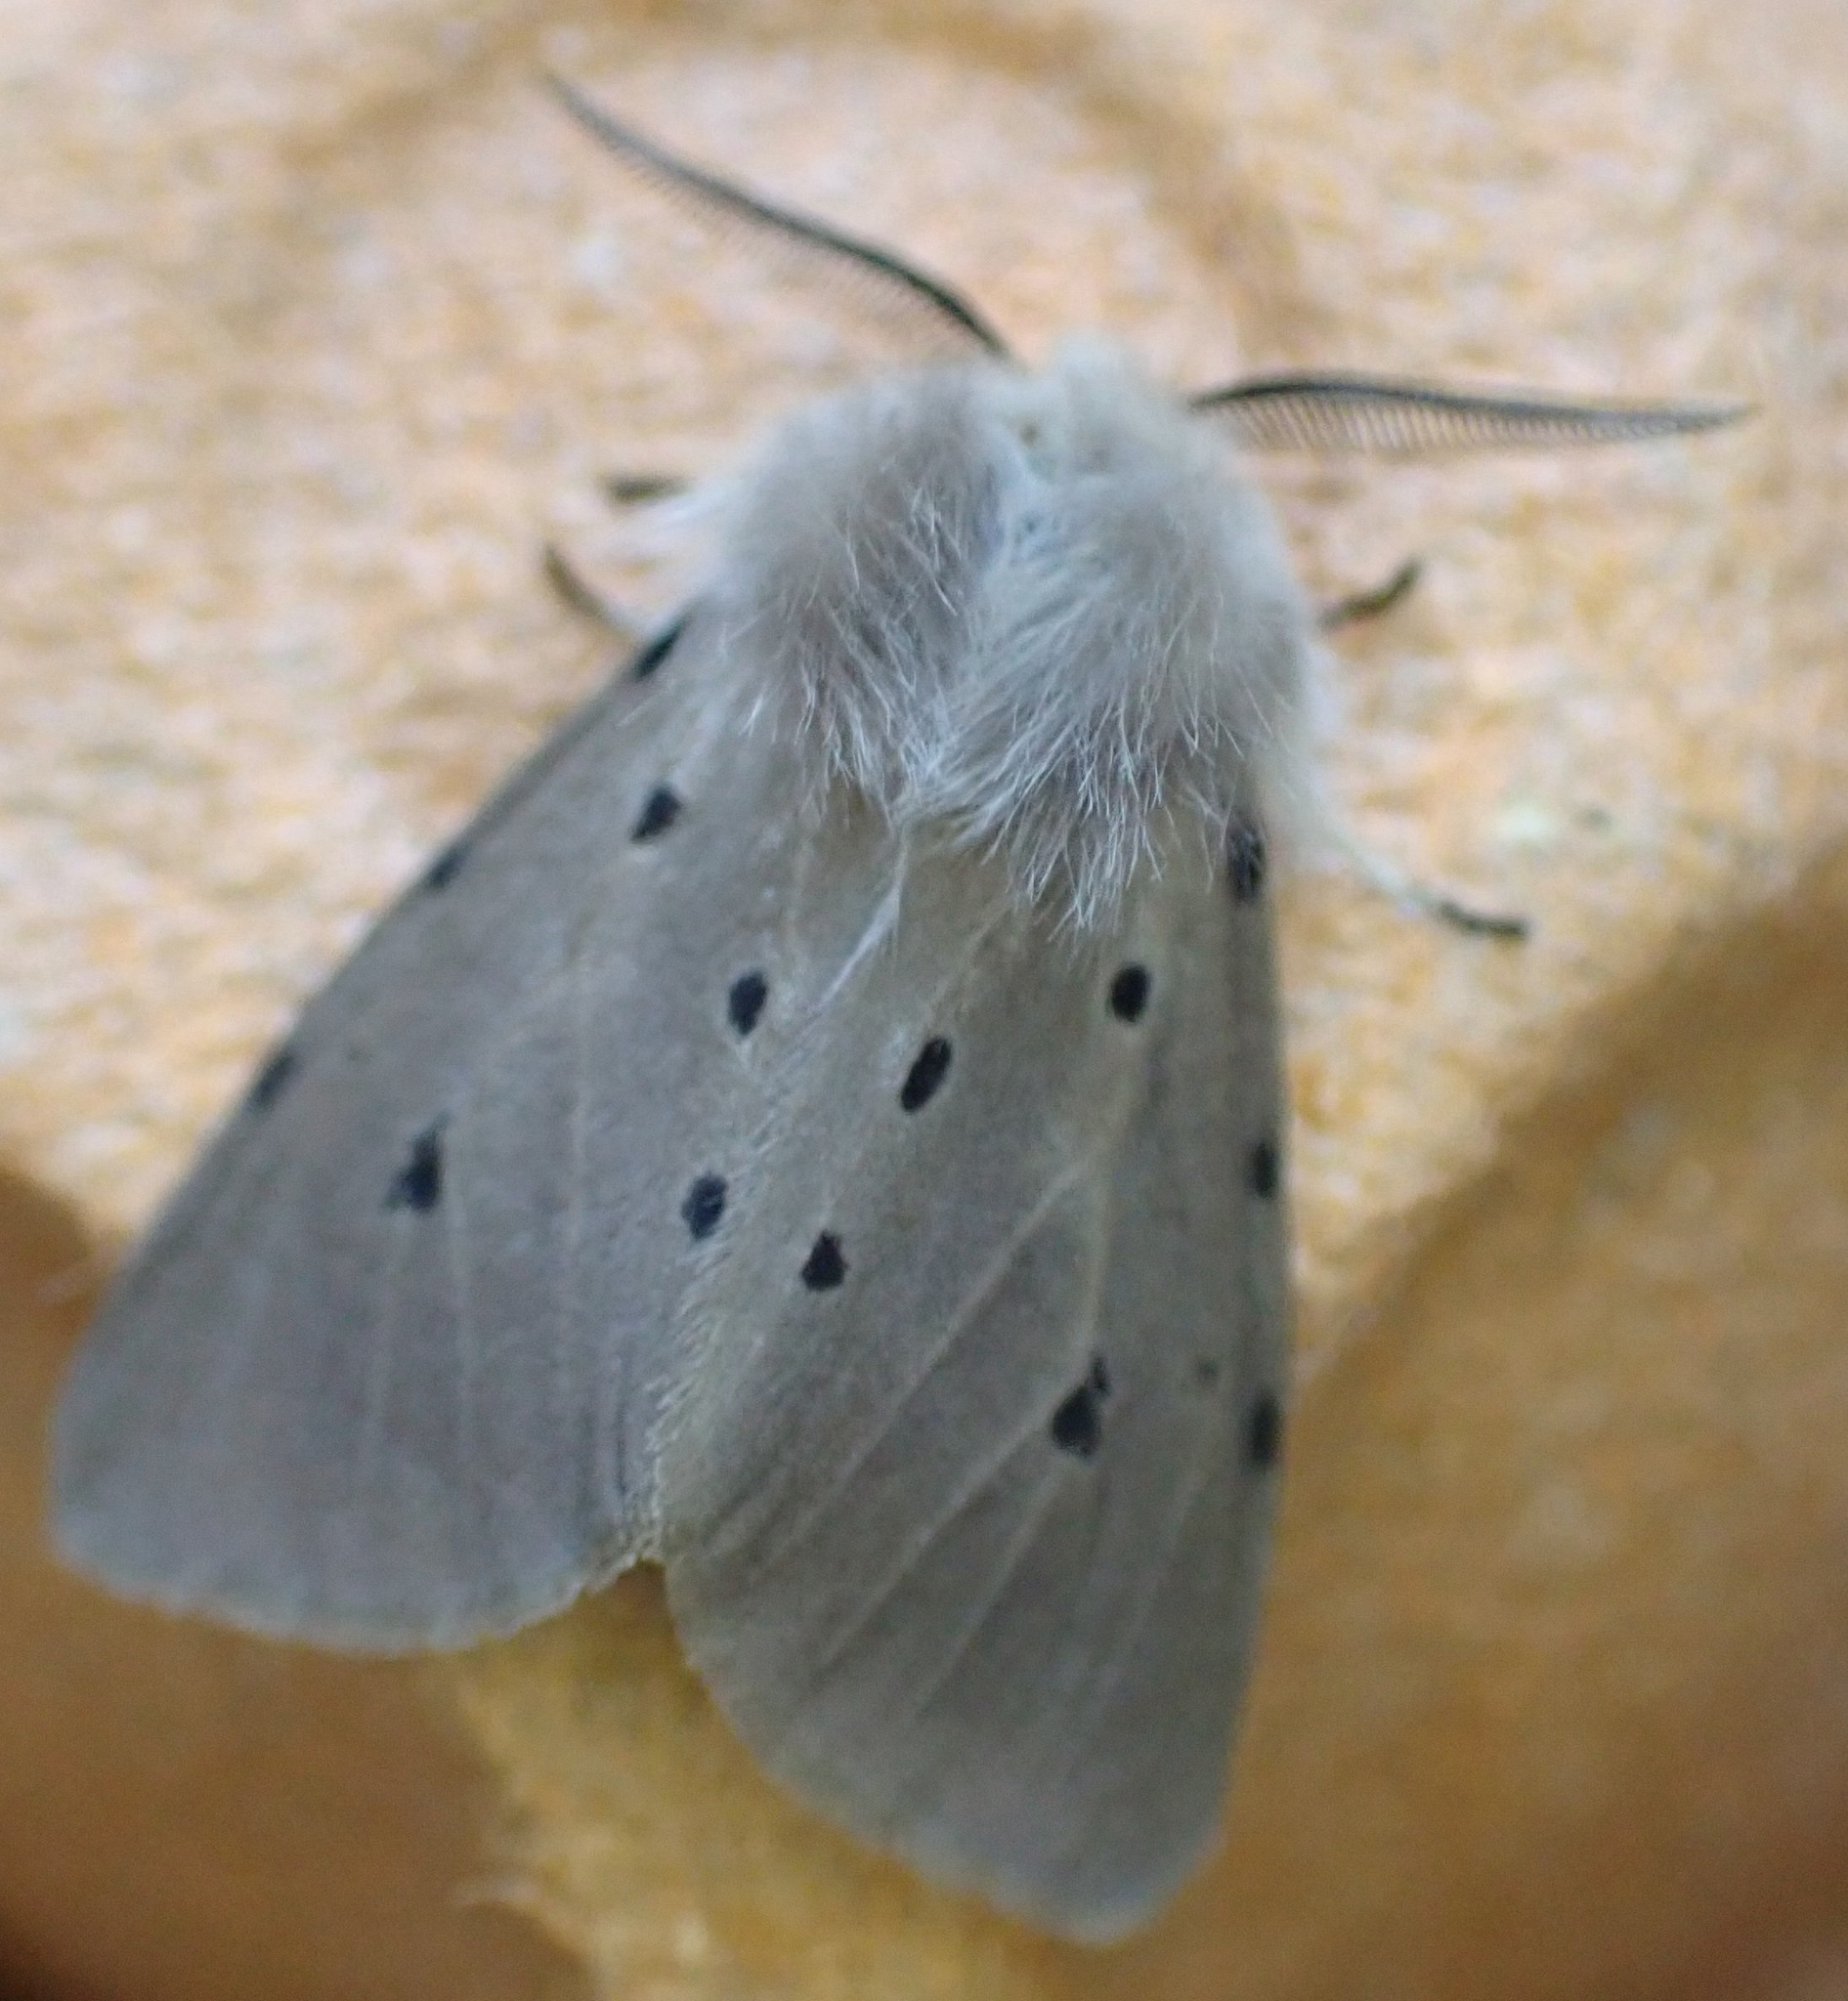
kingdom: Animalia
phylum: Arthropoda
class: Insecta
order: Lepidoptera
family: Erebidae
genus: Diaphora
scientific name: Diaphora mendica
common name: Muslin moth
